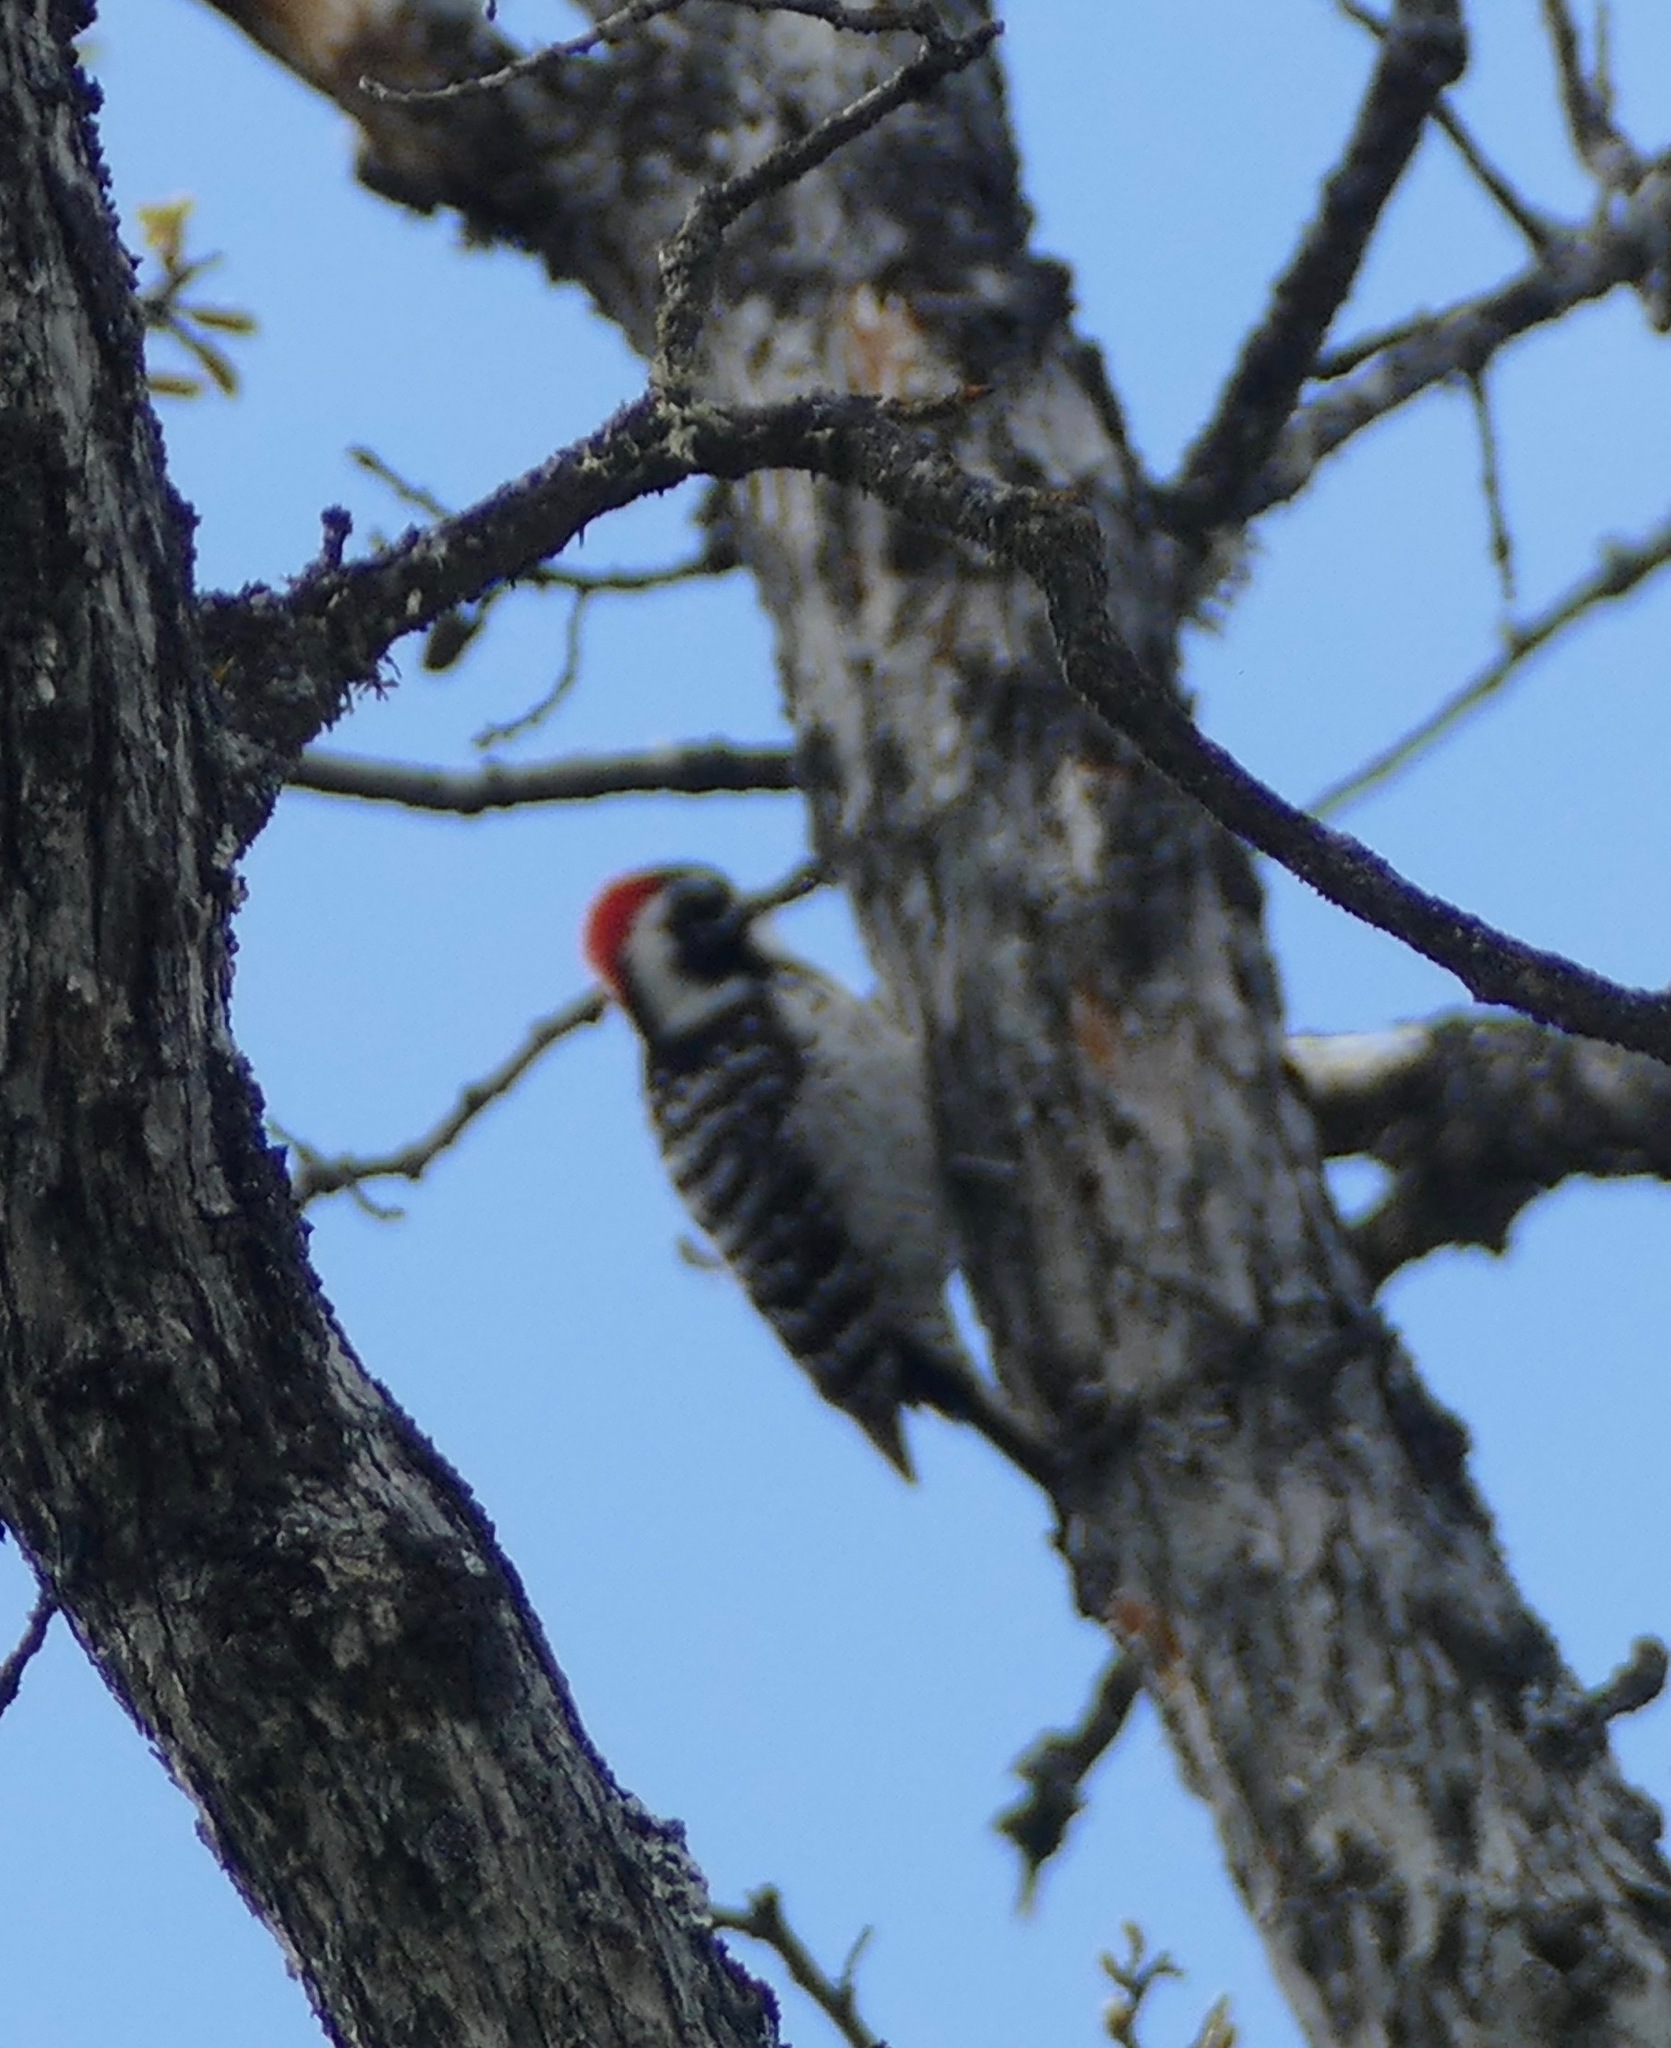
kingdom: Animalia
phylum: Chordata
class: Aves
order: Piciformes
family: Picidae
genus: Dryobates
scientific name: Dryobates nuttallii
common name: Nuttall's woodpecker
